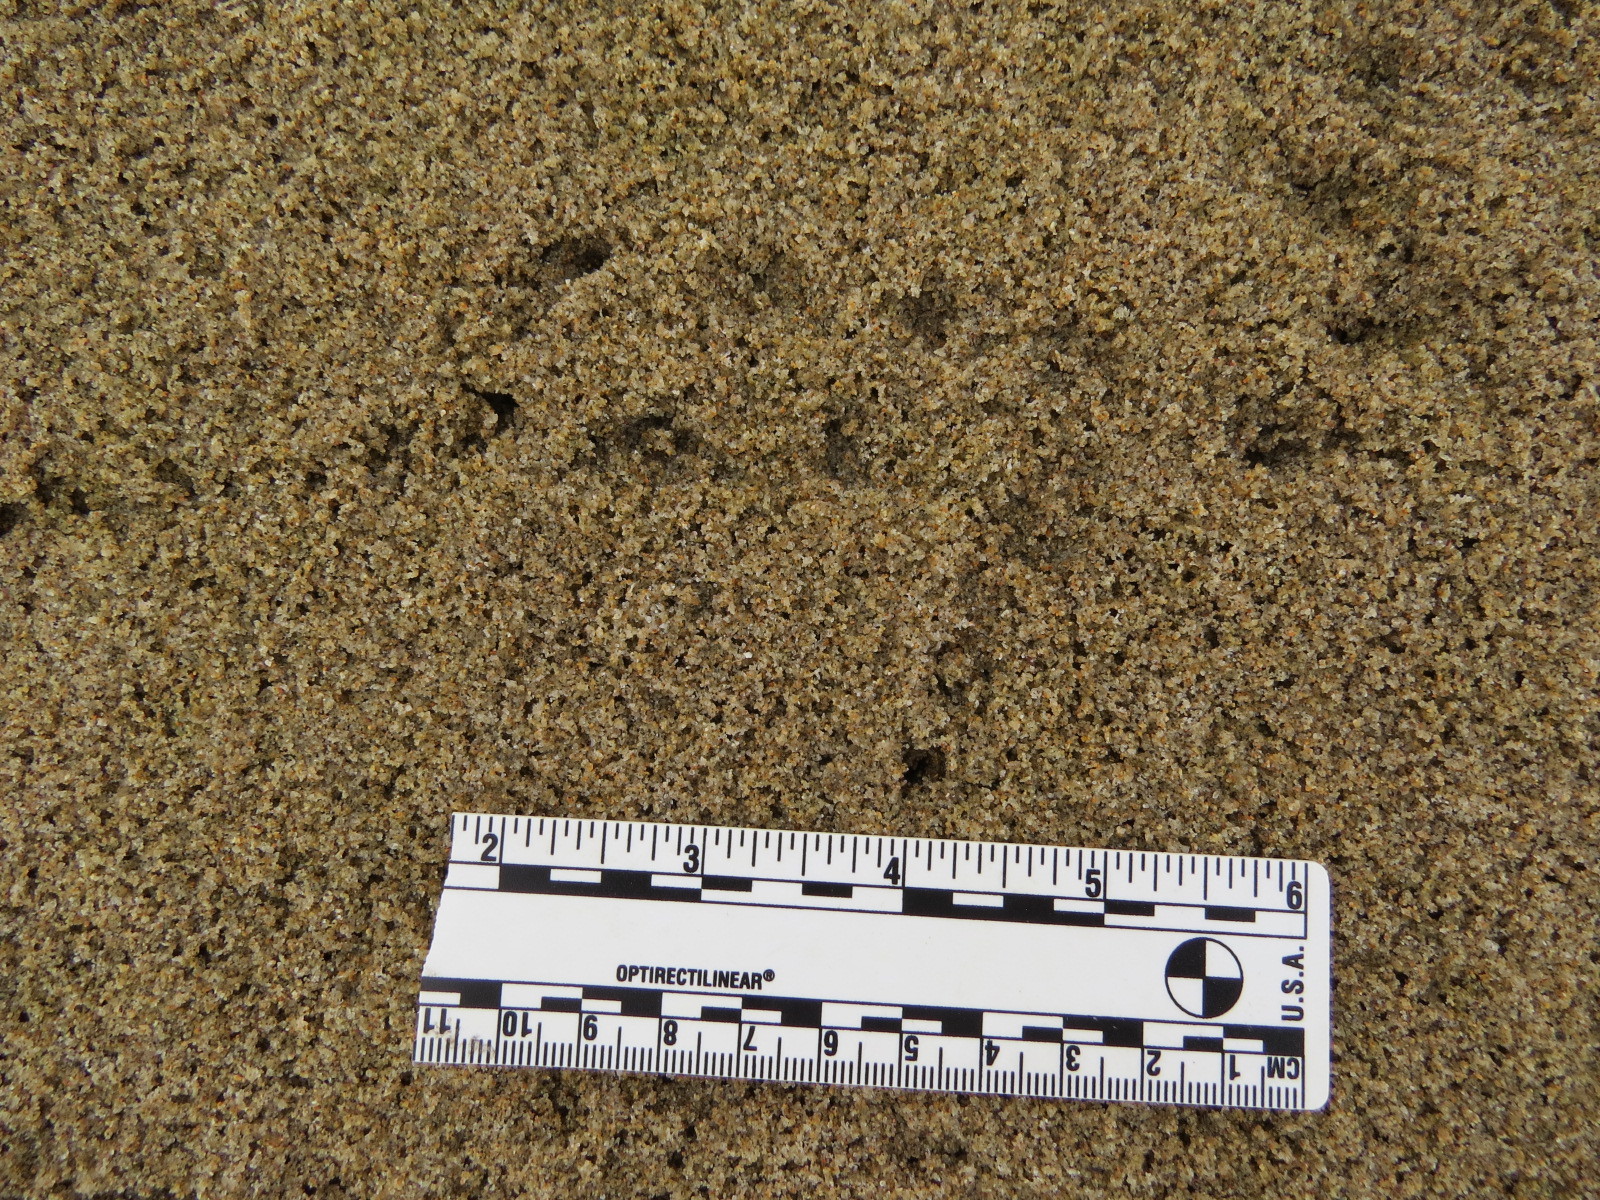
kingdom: Animalia
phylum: Chordata
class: Aves
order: Strigiformes
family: Strigidae
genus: Bubo
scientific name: Bubo virginianus
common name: Great horned owl
